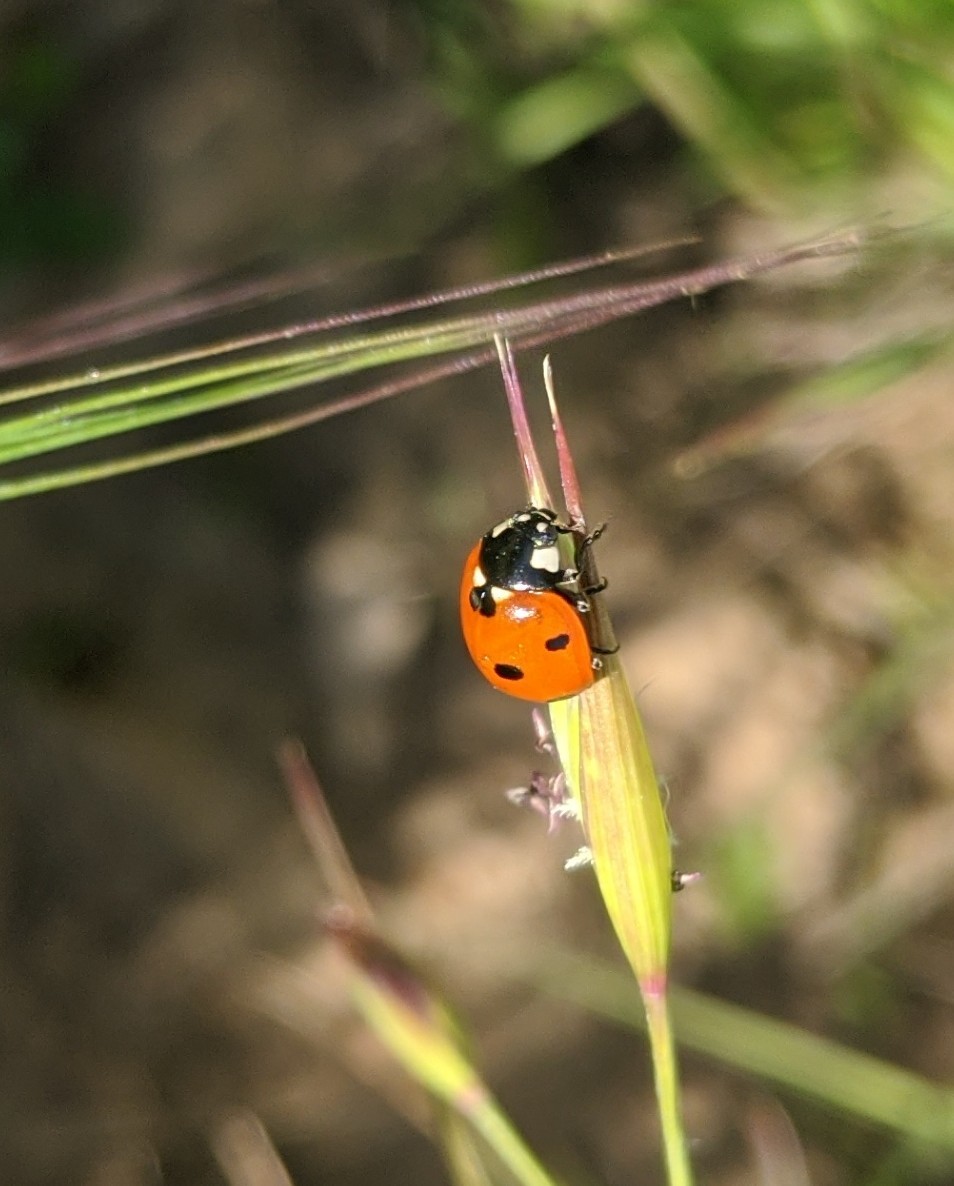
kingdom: Animalia
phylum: Arthropoda
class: Insecta
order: Coleoptera
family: Coccinellidae
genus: Coccinella
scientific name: Coccinella septempunctata
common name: Sevenspotted lady beetle
